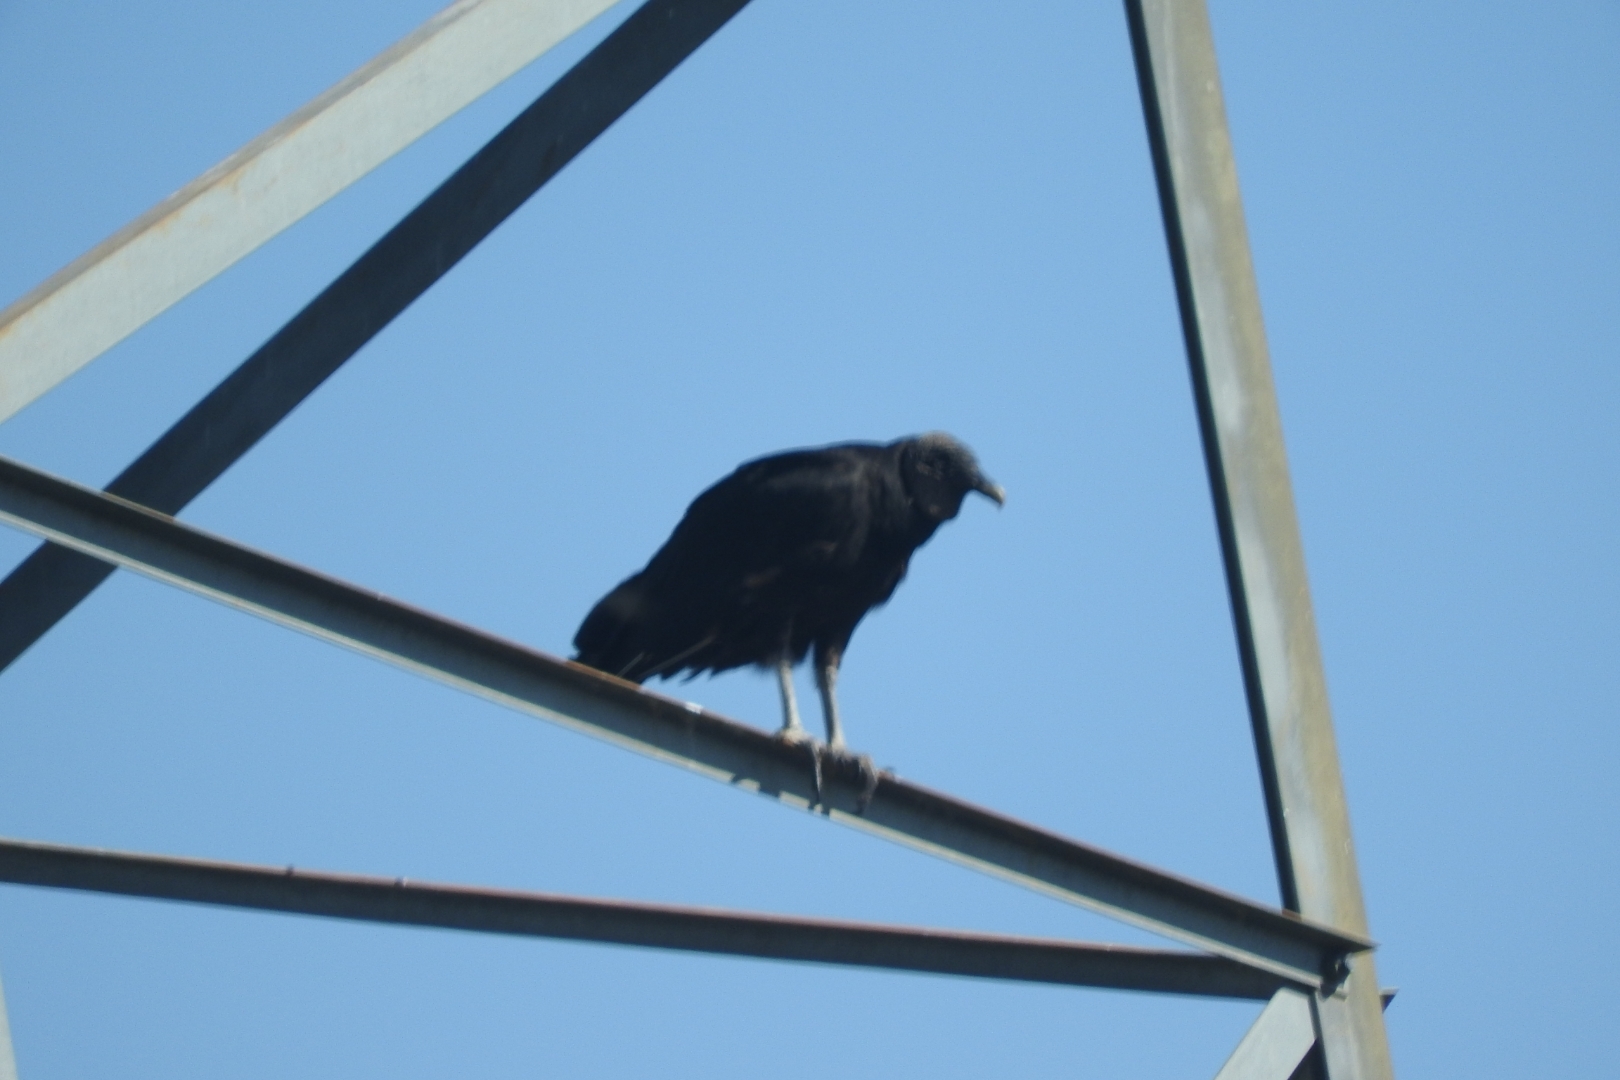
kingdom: Animalia
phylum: Chordata
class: Aves
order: Accipitriformes
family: Cathartidae
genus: Coragyps
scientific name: Coragyps atratus
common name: Black vulture
